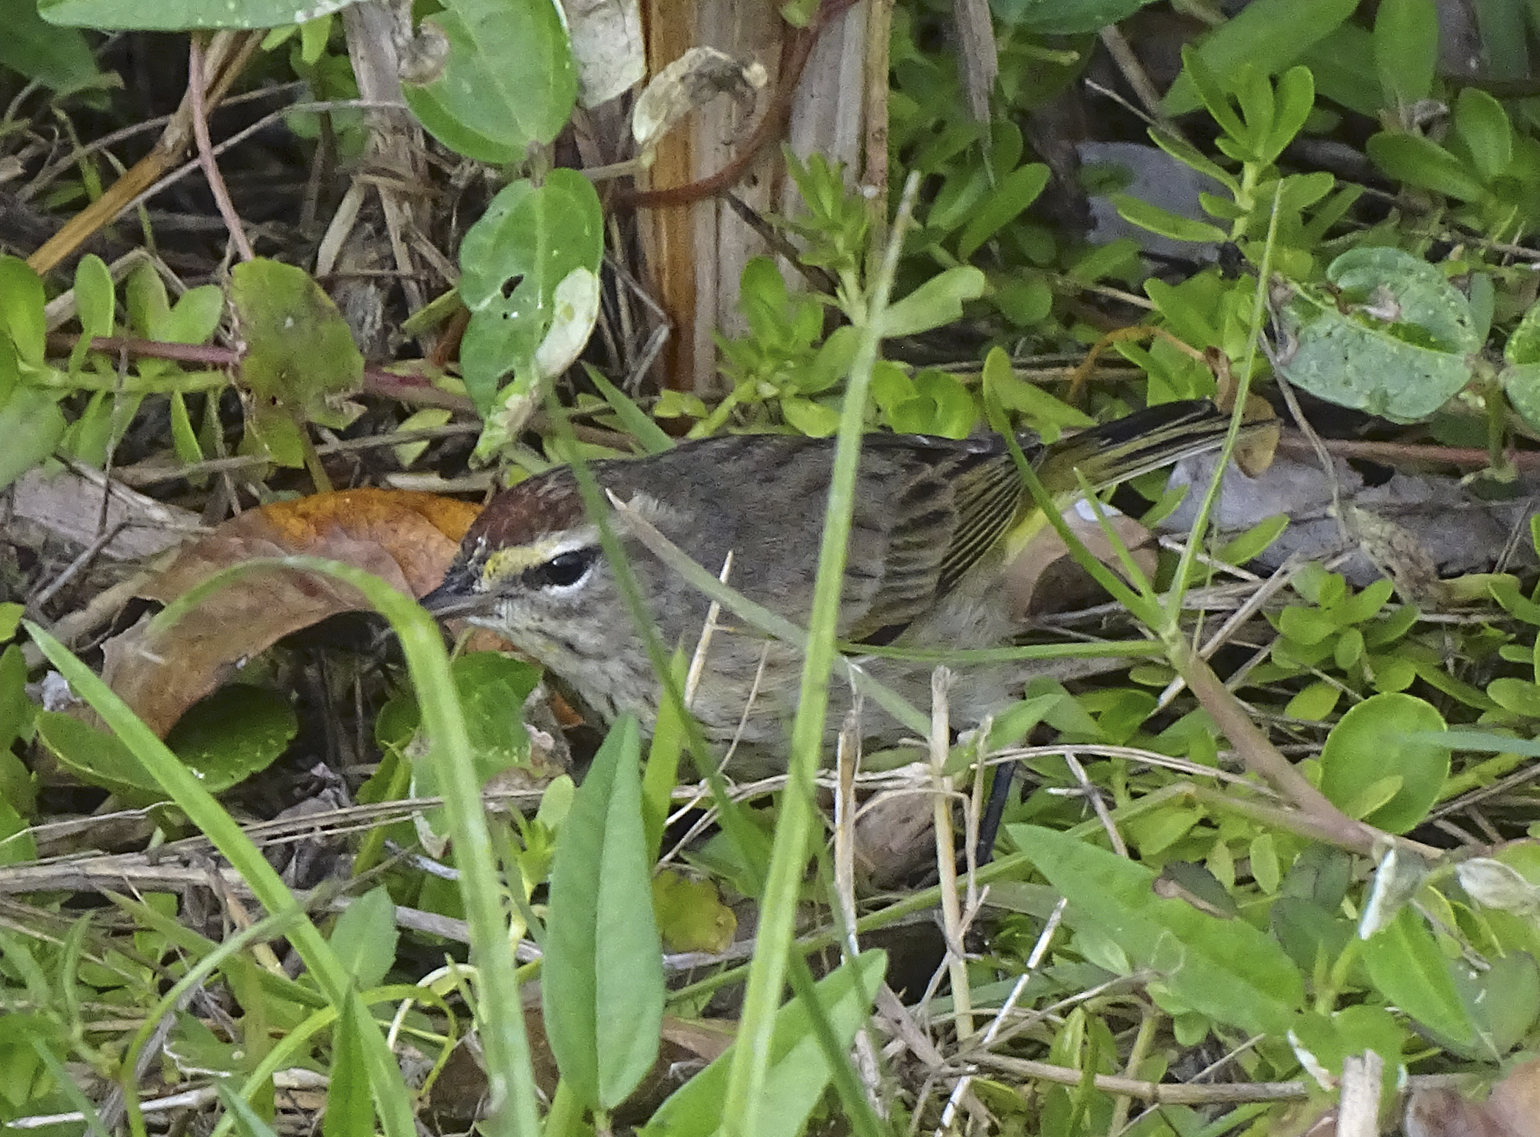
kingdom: Animalia
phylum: Chordata
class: Aves
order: Passeriformes
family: Parulidae
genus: Setophaga
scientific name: Setophaga palmarum
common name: Palm warbler
